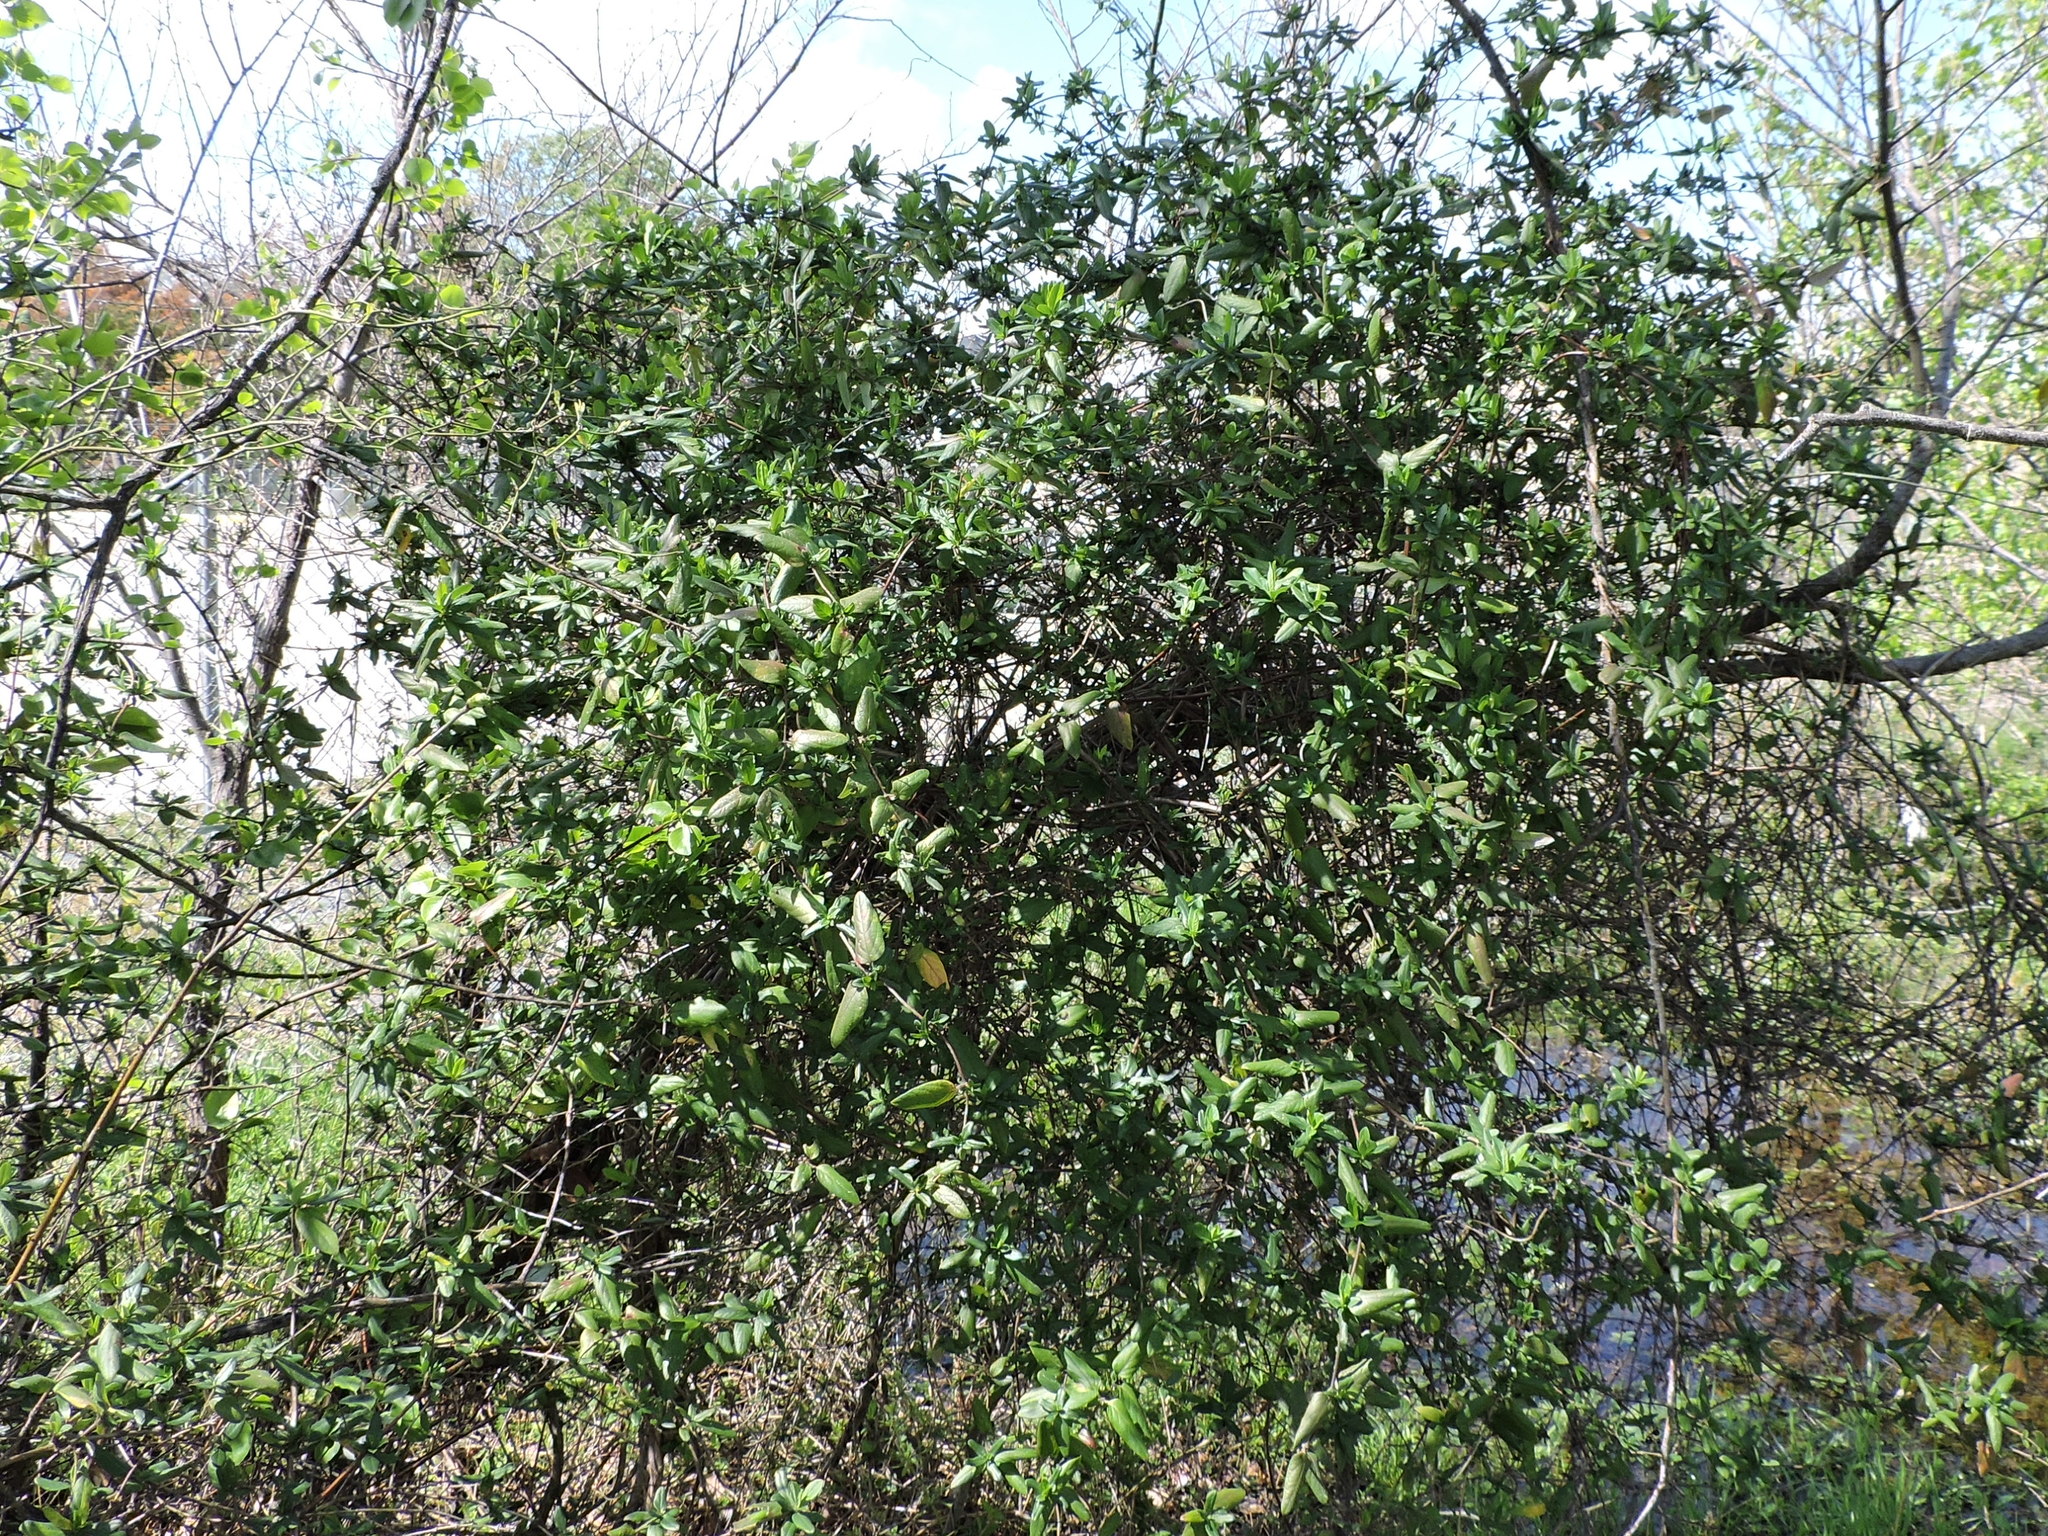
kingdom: Plantae
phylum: Tracheophyta
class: Magnoliopsida
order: Dipsacales
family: Caprifoliaceae
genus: Lonicera
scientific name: Lonicera japonica
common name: Japanese honeysuckle
